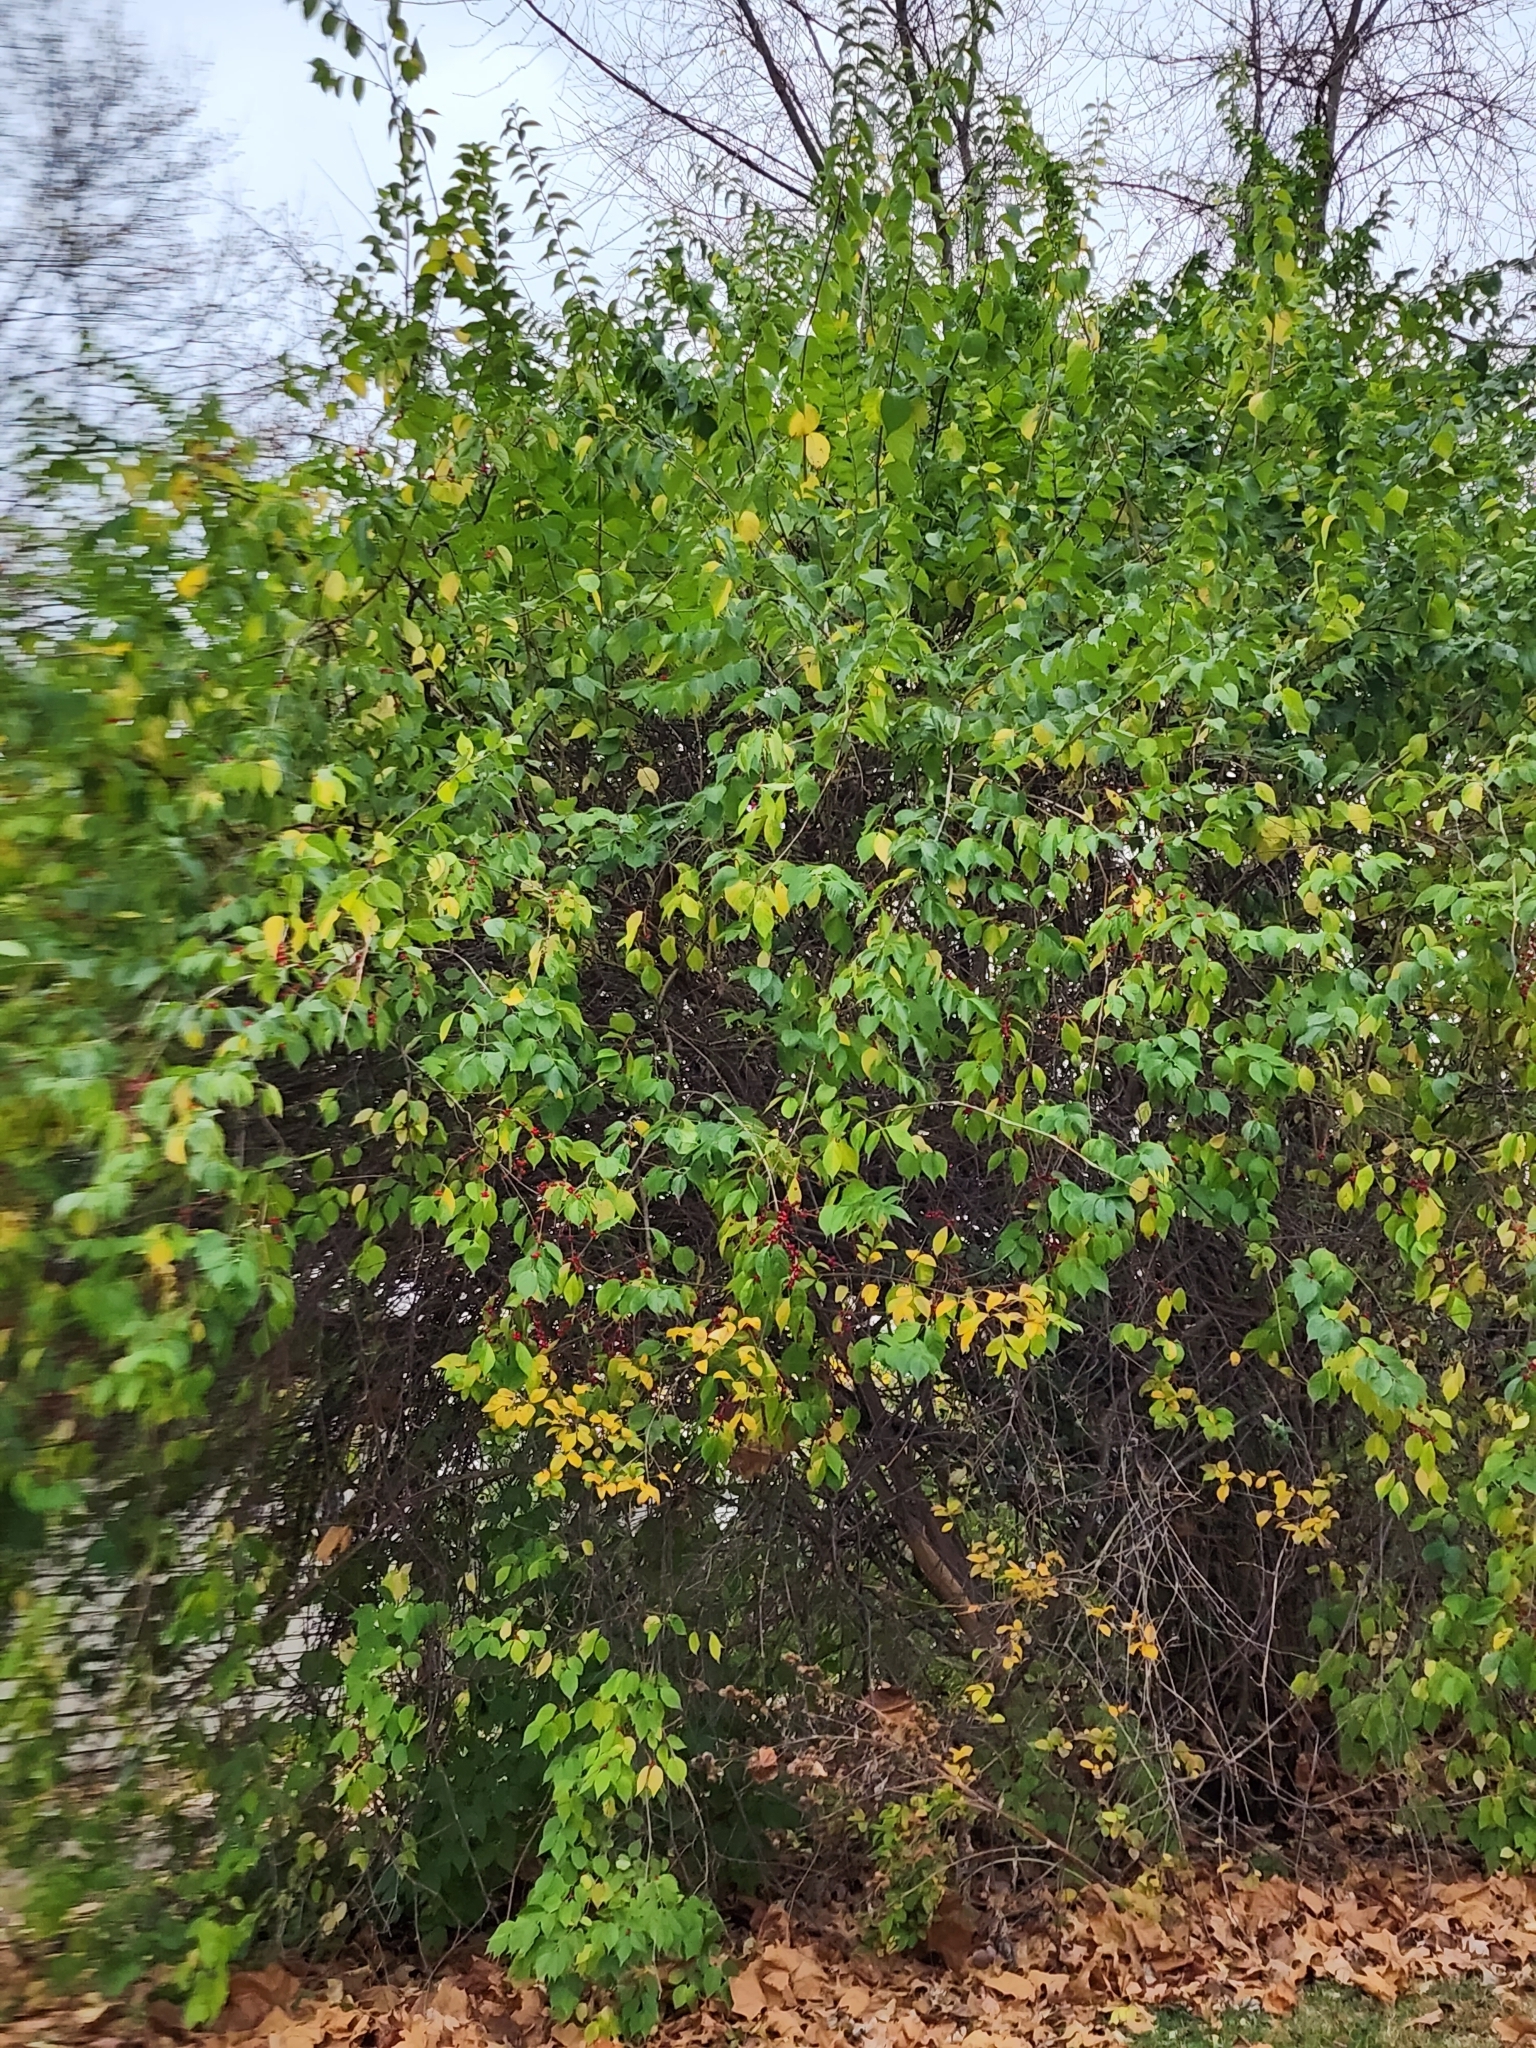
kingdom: Plantae
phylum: Tracheophyta
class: Magnoliopsida
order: Dipsacales
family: Caprifoliaceae
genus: Lonicera
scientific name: Lonicera maackii
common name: Amur honeysuckle
